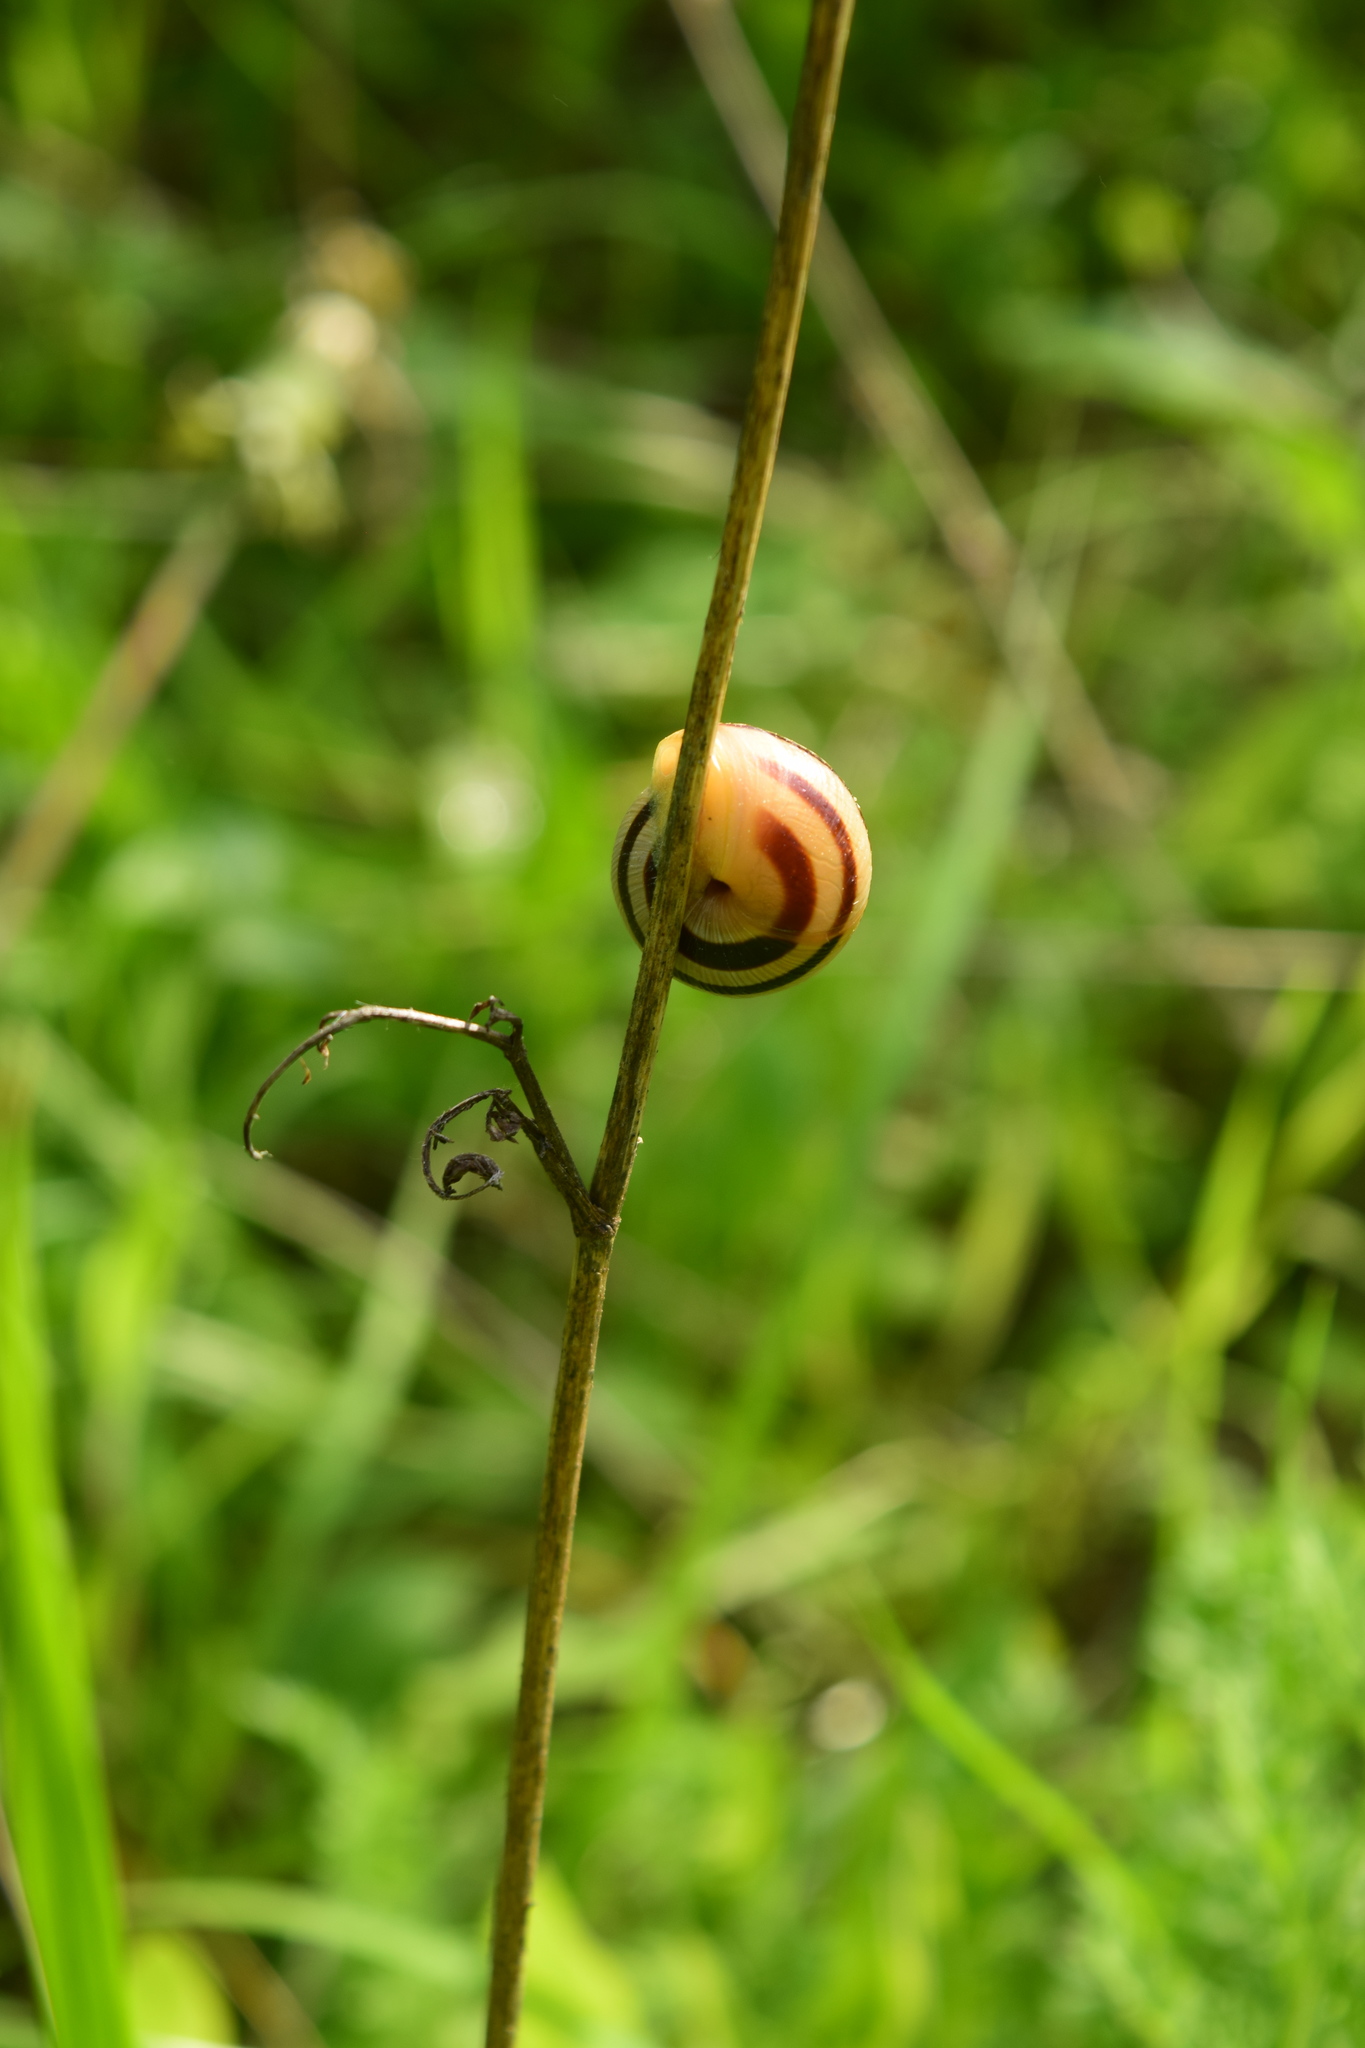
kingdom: Animalia
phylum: Mollusca
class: Gastropoda
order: Stylommatophora
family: Helicidae
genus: Caucasotachea
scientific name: Caucasotachea vindobonensis
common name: European helicid land snail
